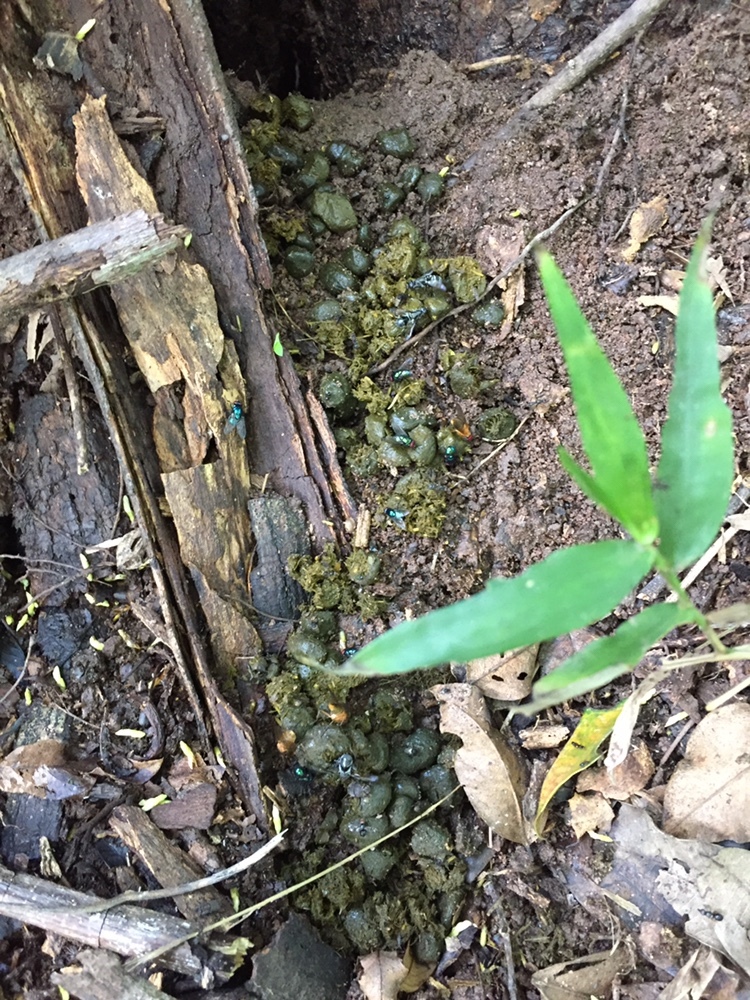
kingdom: Animalia
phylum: Chordata
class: Mammalia
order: Hyracoidea
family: Procaviidae
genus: Procavia
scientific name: Procavia capensis
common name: Rock hyrax
